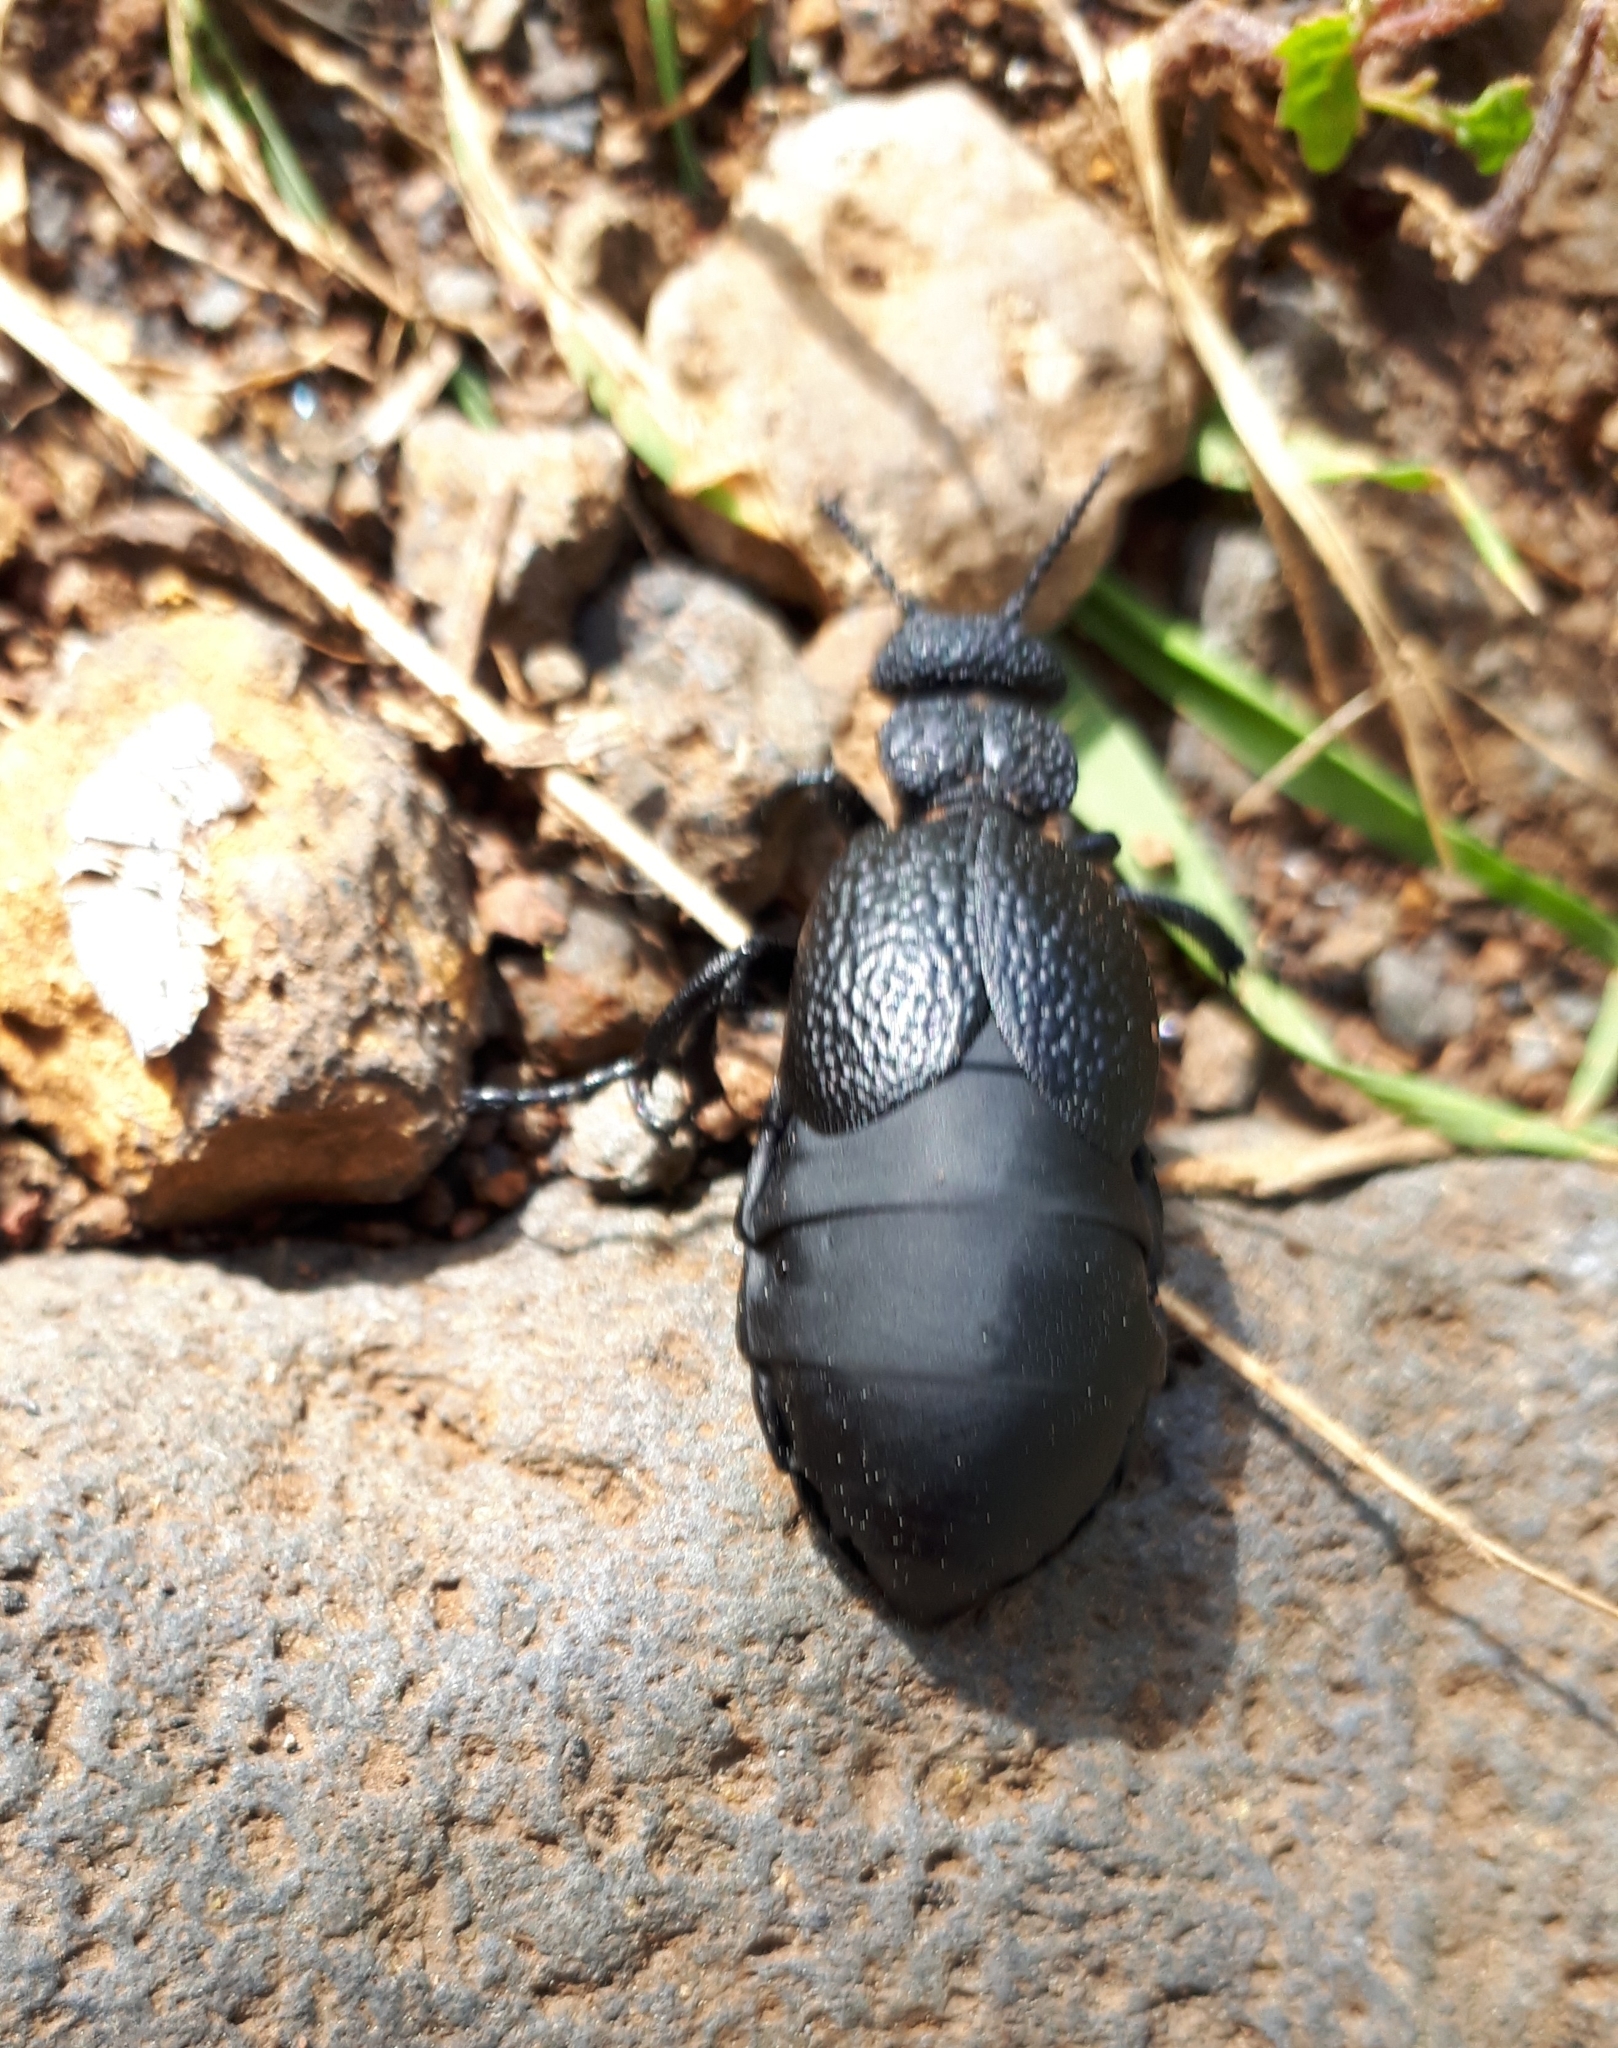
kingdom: Animalia
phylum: Arthropoda
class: Insecta
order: Coleoptera
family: Meloidae
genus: Meloe
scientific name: Meloe tuccius
